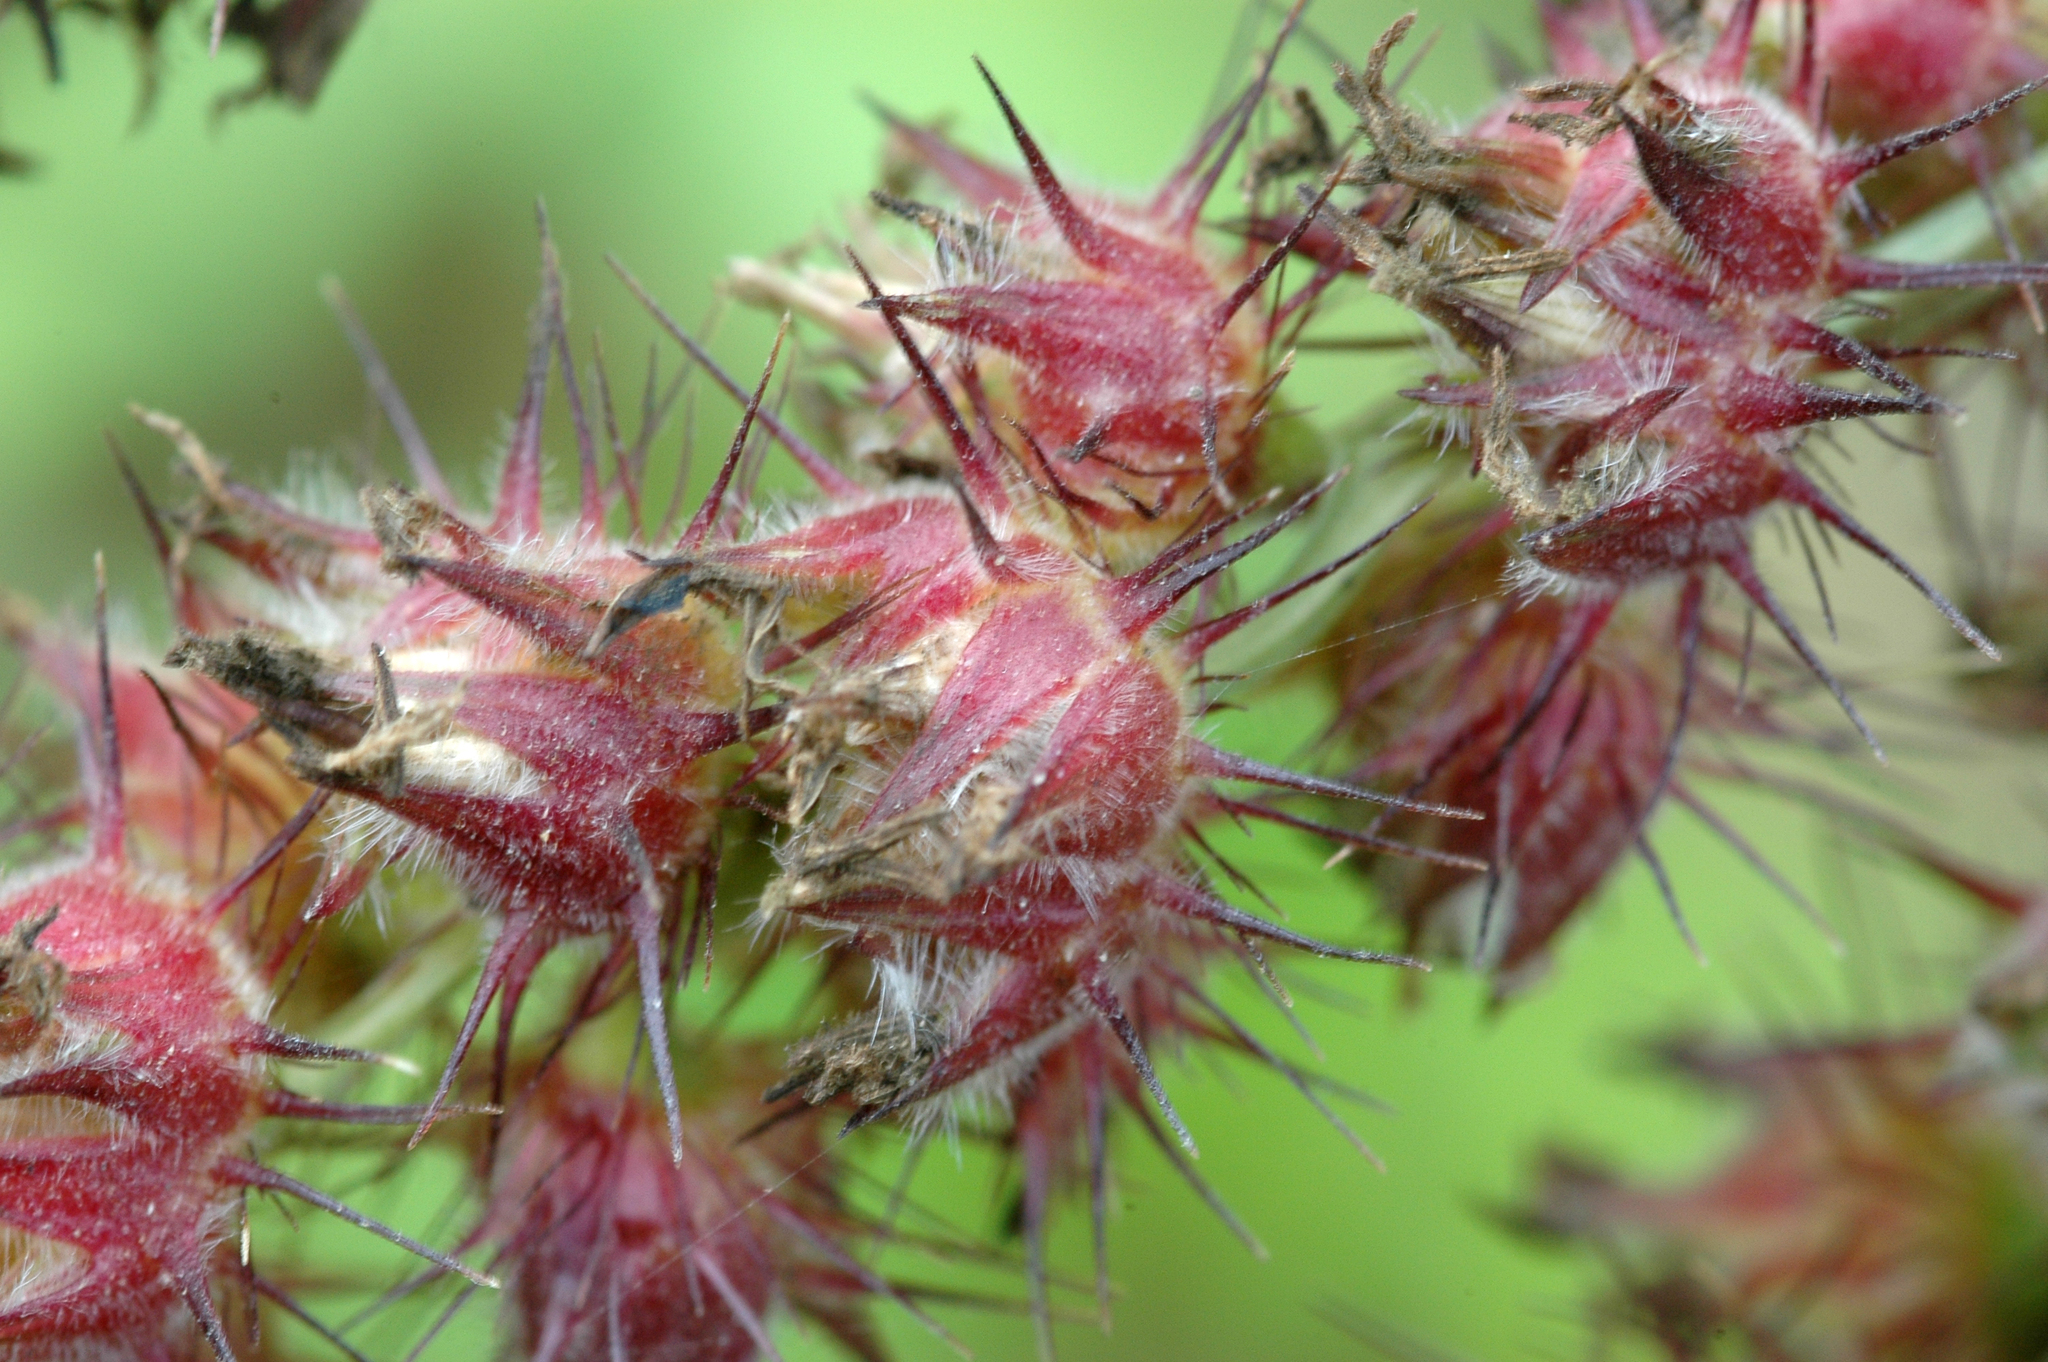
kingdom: Plantae
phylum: Tracheophyta
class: Liliopsida
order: Poales
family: Poaceae
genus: Cenchrus
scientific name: Cenchrus echinatus
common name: Southern sandbur
